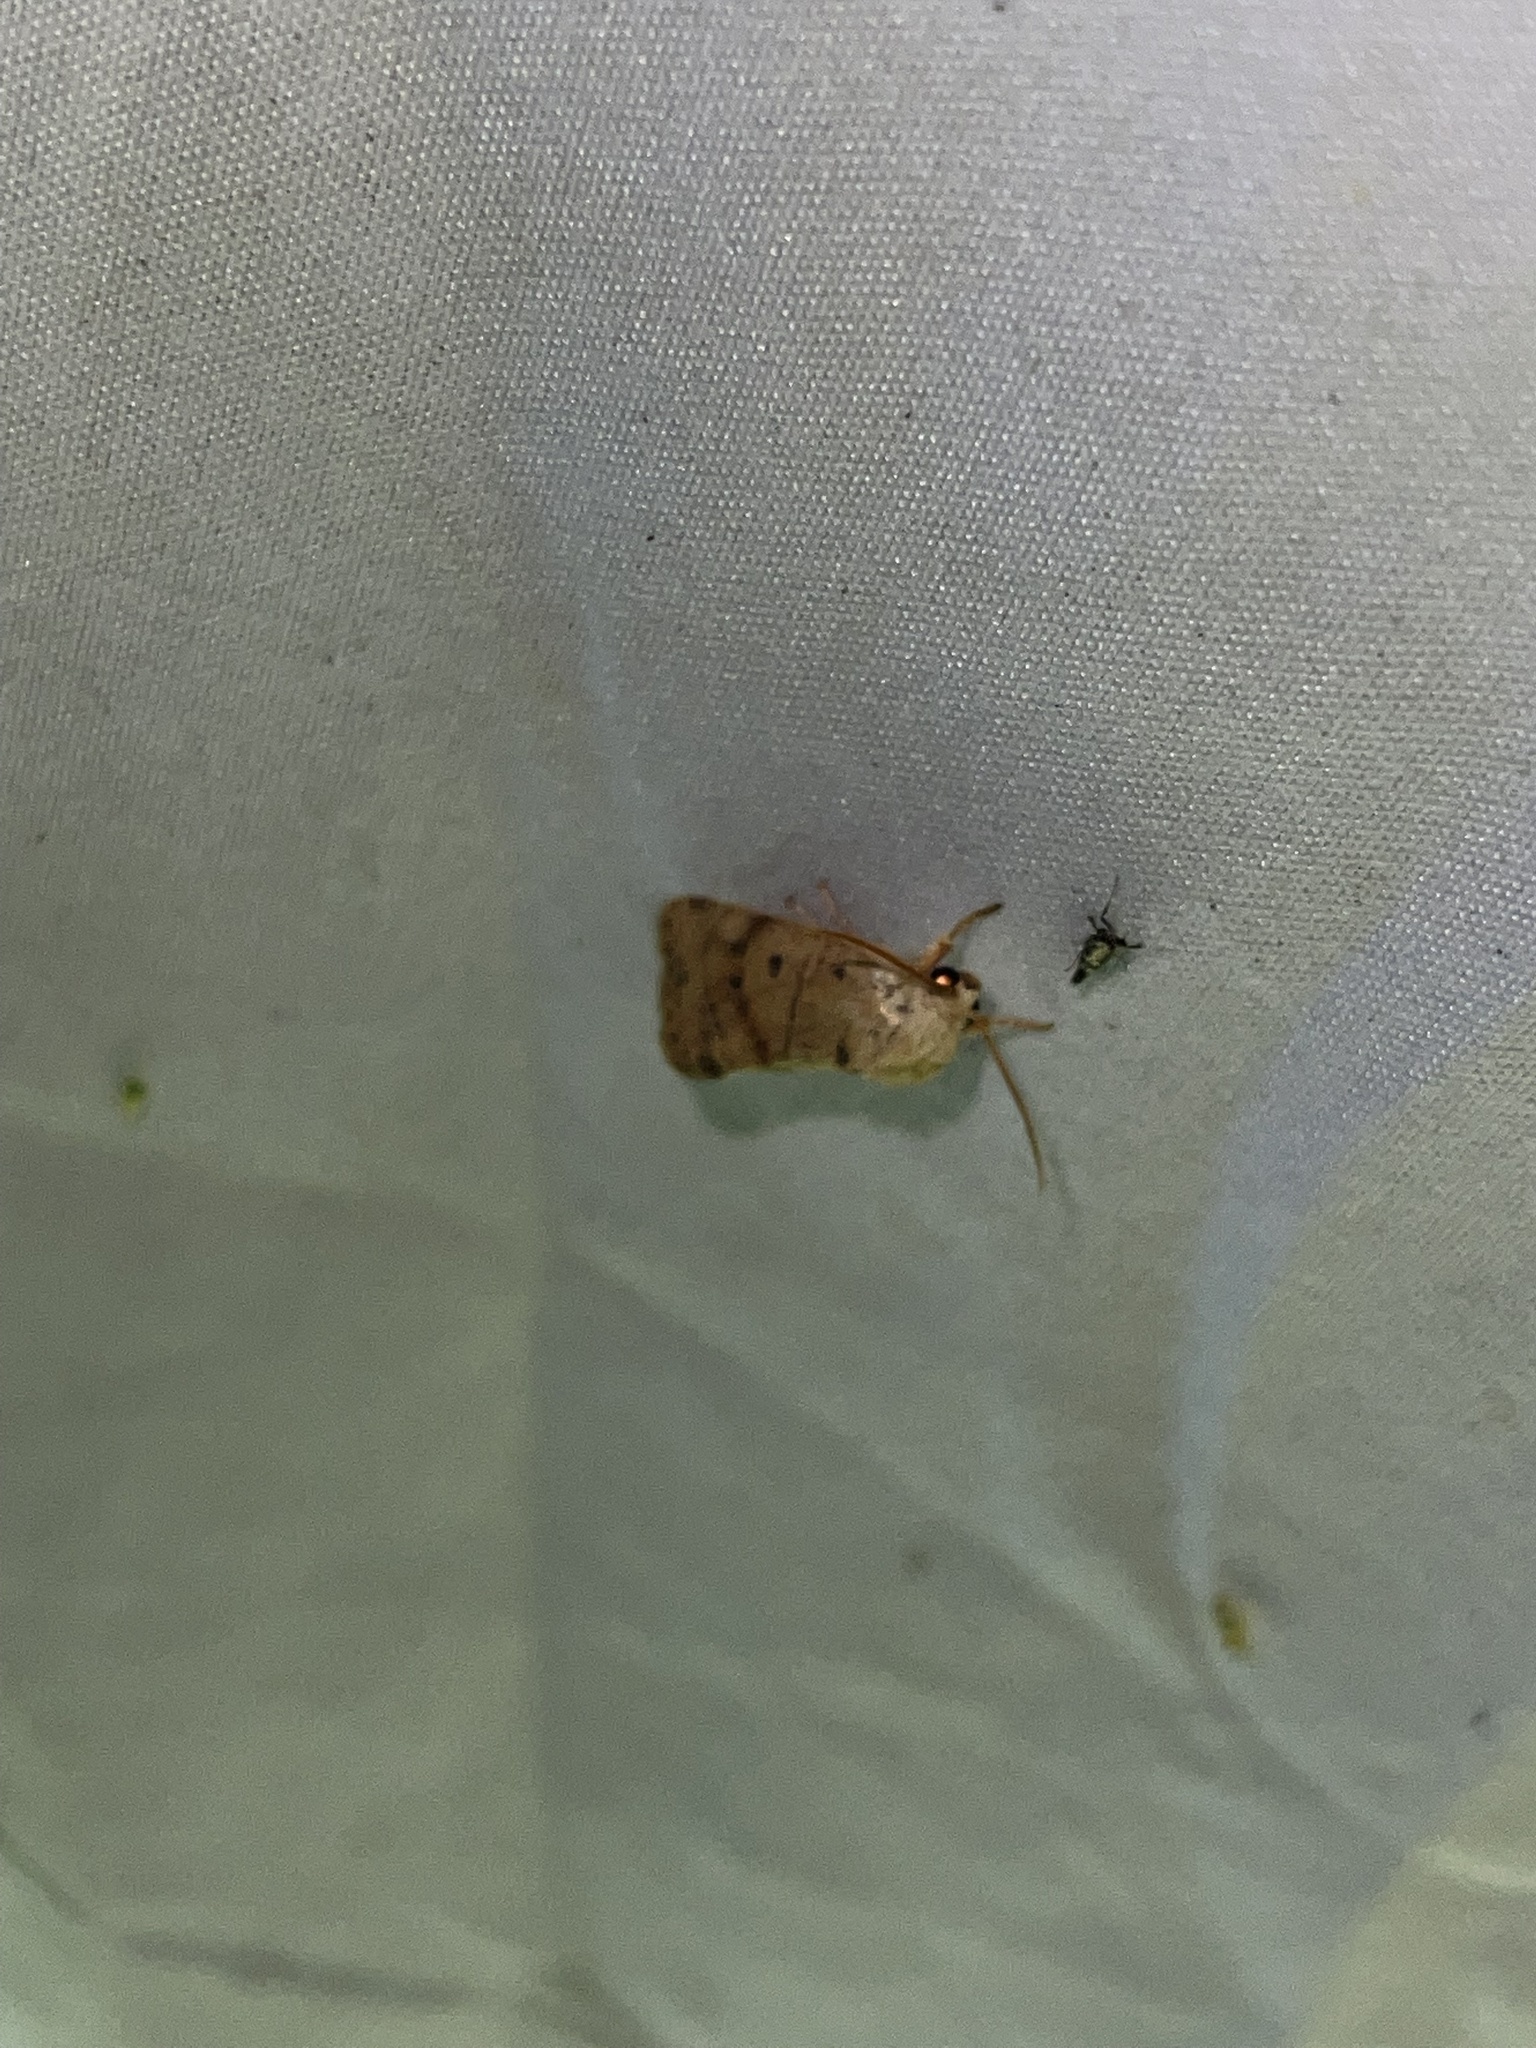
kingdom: Animalia
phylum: Arthropoda
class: Insecta
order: Lepidoptera
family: Noctuidae
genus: Cosmia
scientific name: Cosmia calami
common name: American dun-bar moth
